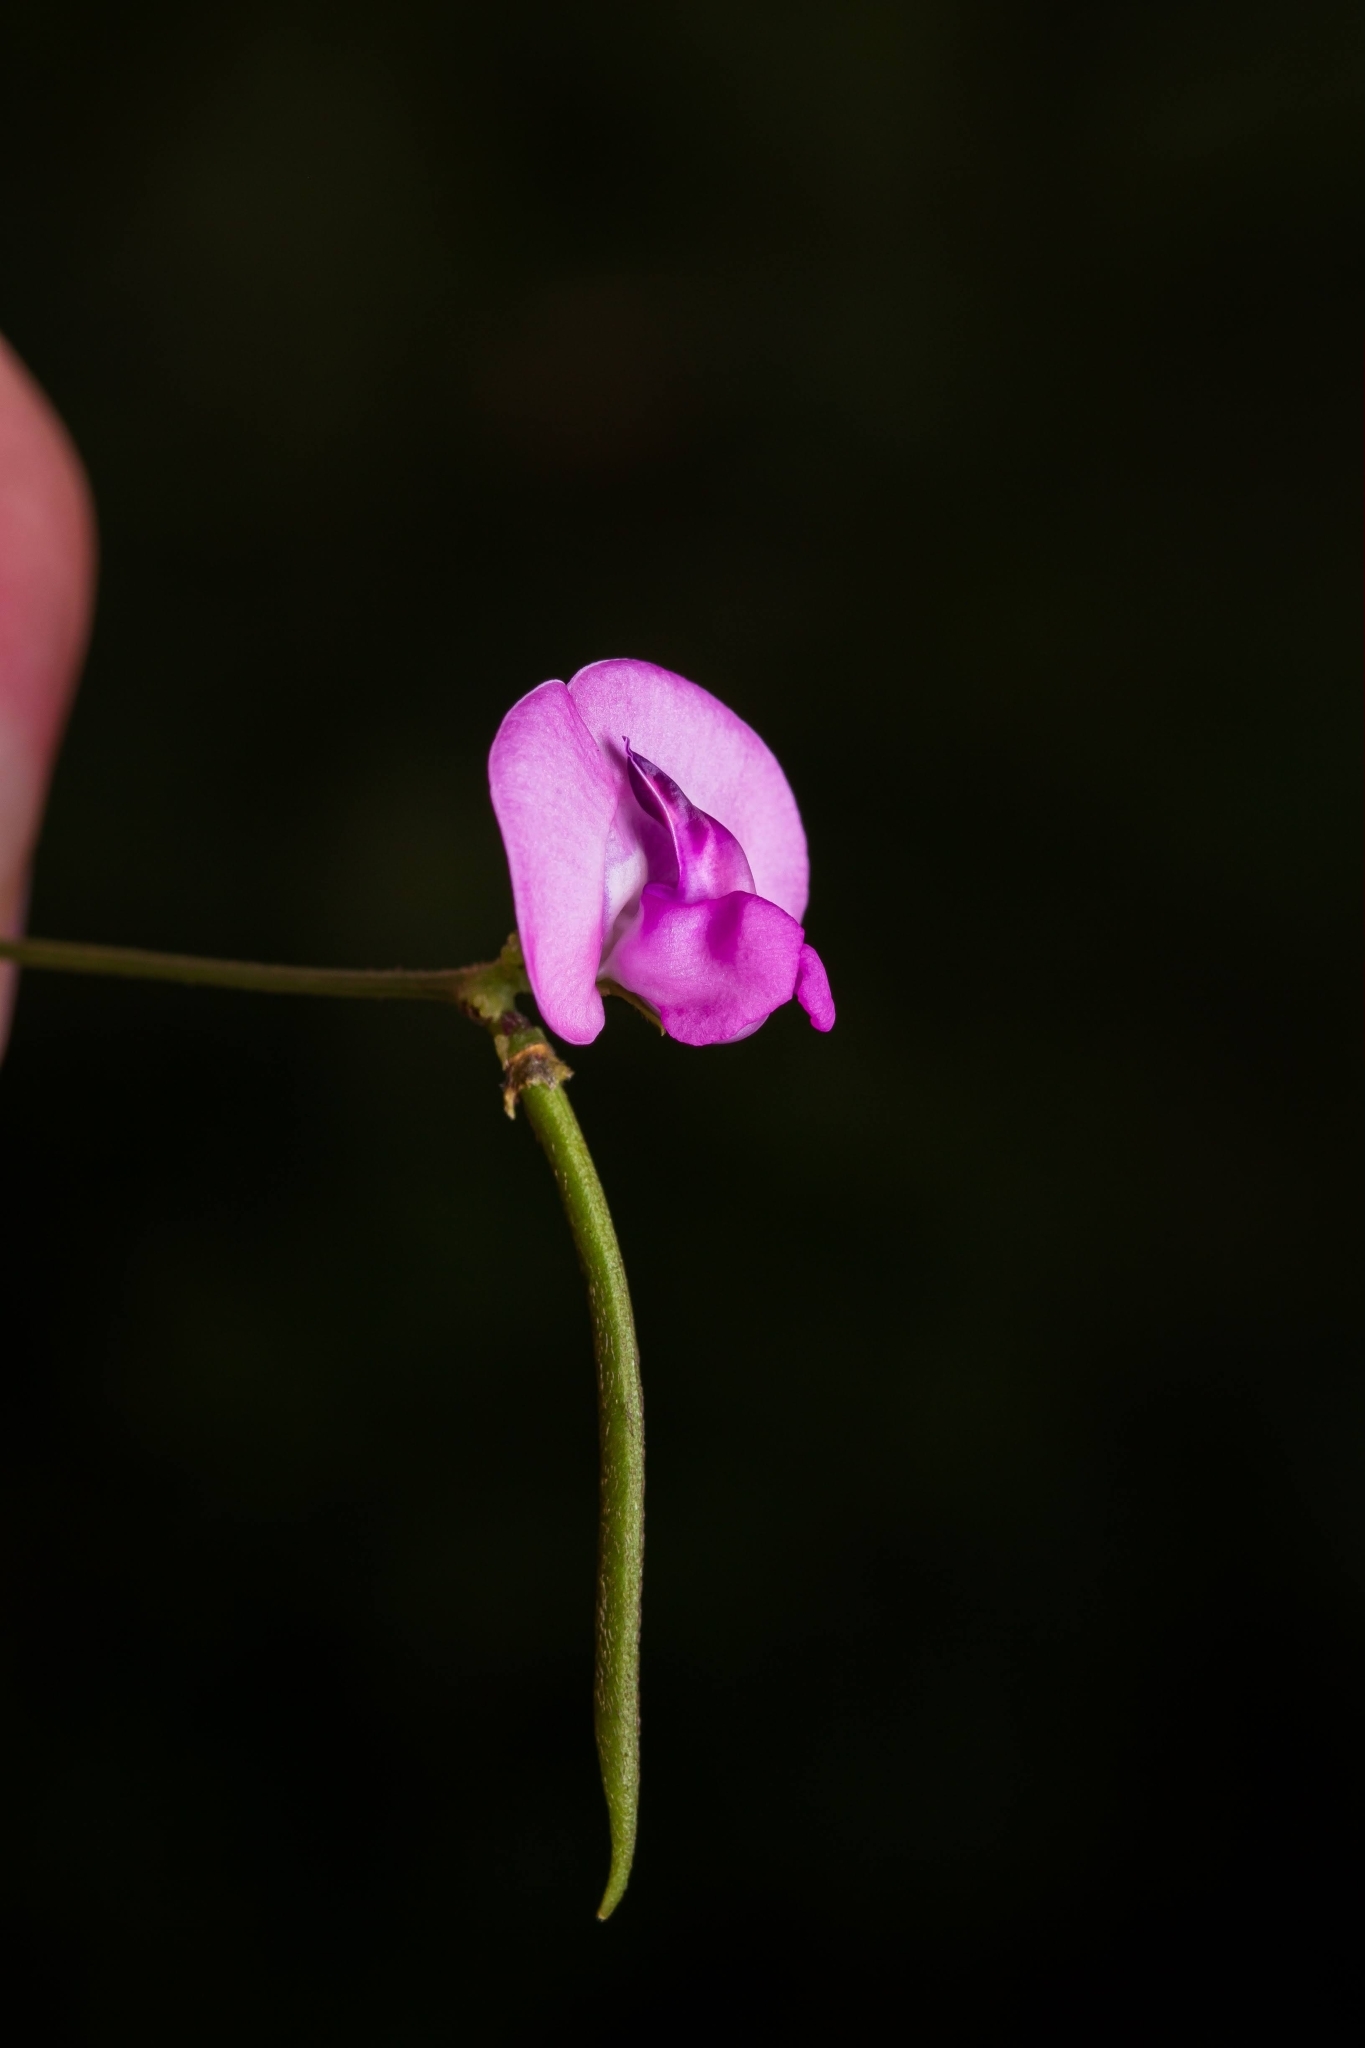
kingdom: Plantae
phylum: Tracheophyta
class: Magnoliopsida
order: Fabales
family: Fabaceae
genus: Strophostyles
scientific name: Strophostyles umbellata
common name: Perennial wild bean
